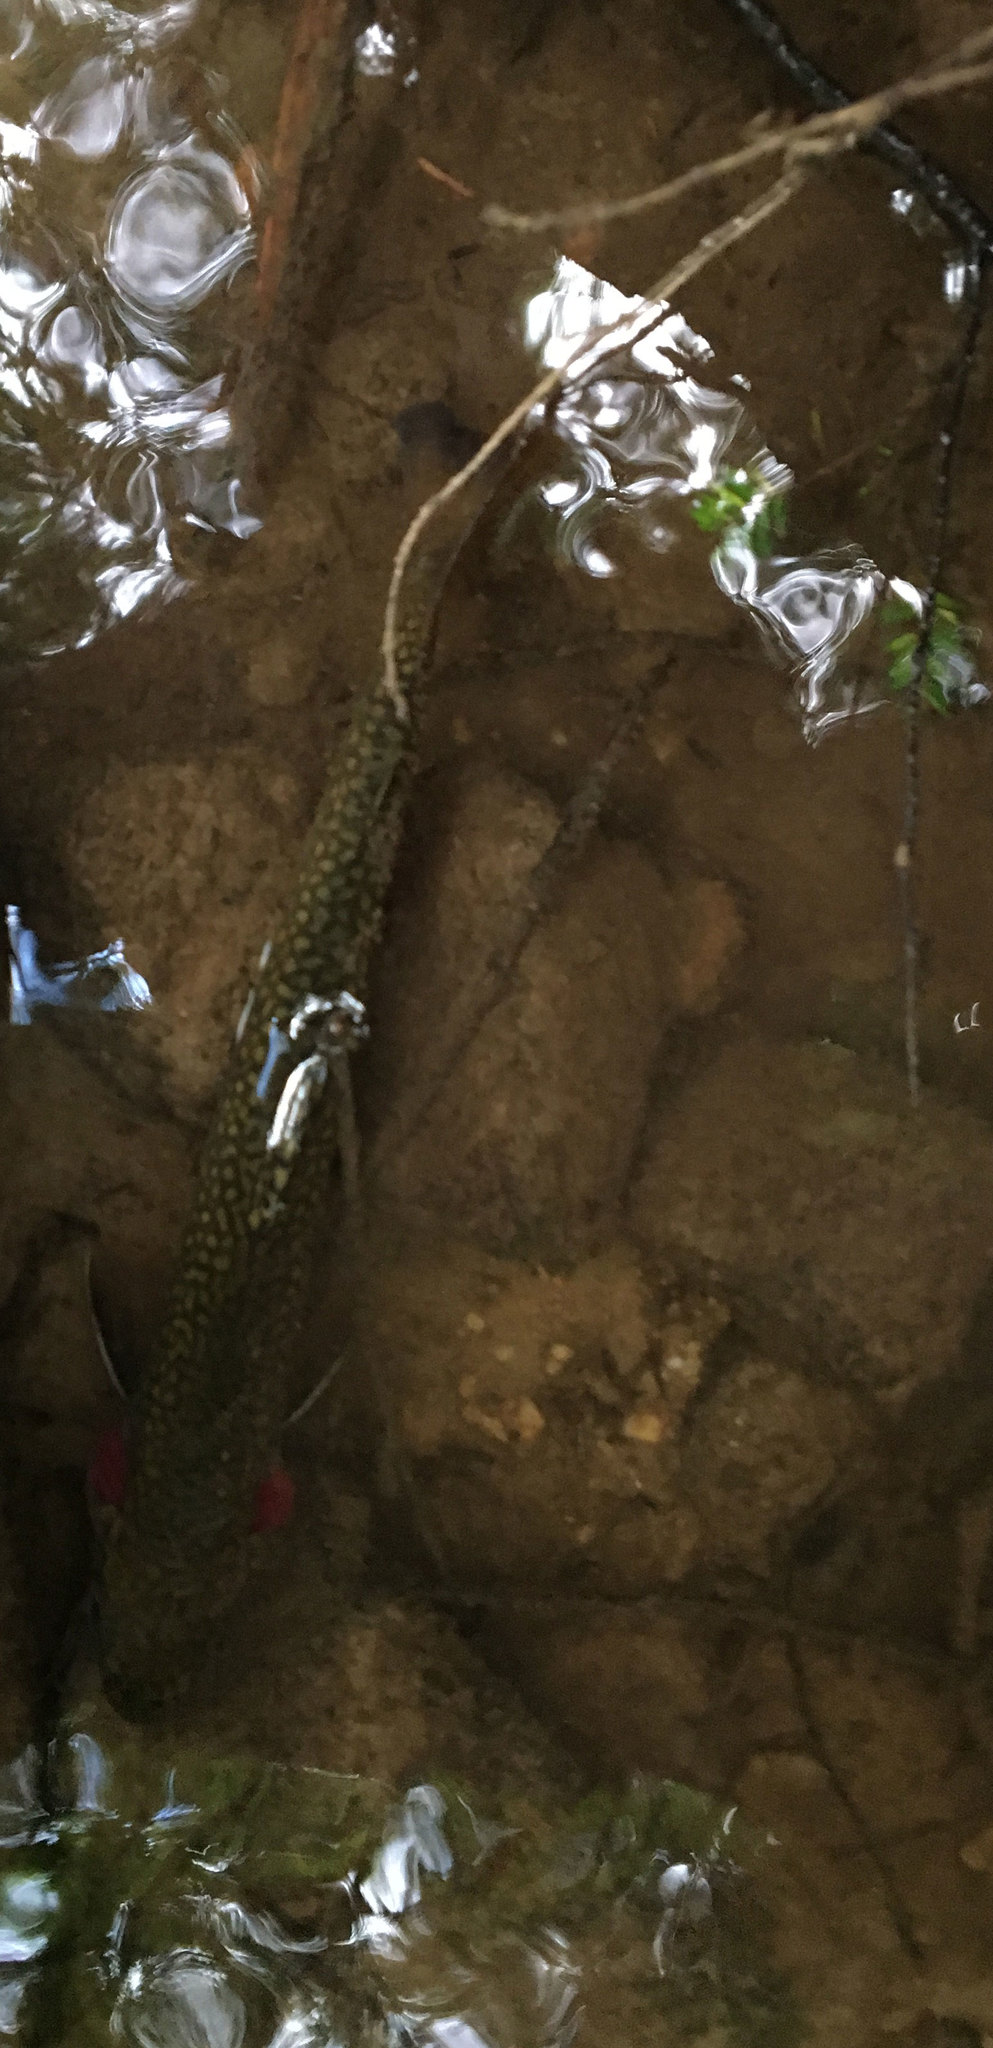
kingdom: Animalia
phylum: Chordata
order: Salmoniformes
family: Salmonidae
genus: Salvelinus
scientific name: Salvelinus fontinalis
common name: Brook trout
